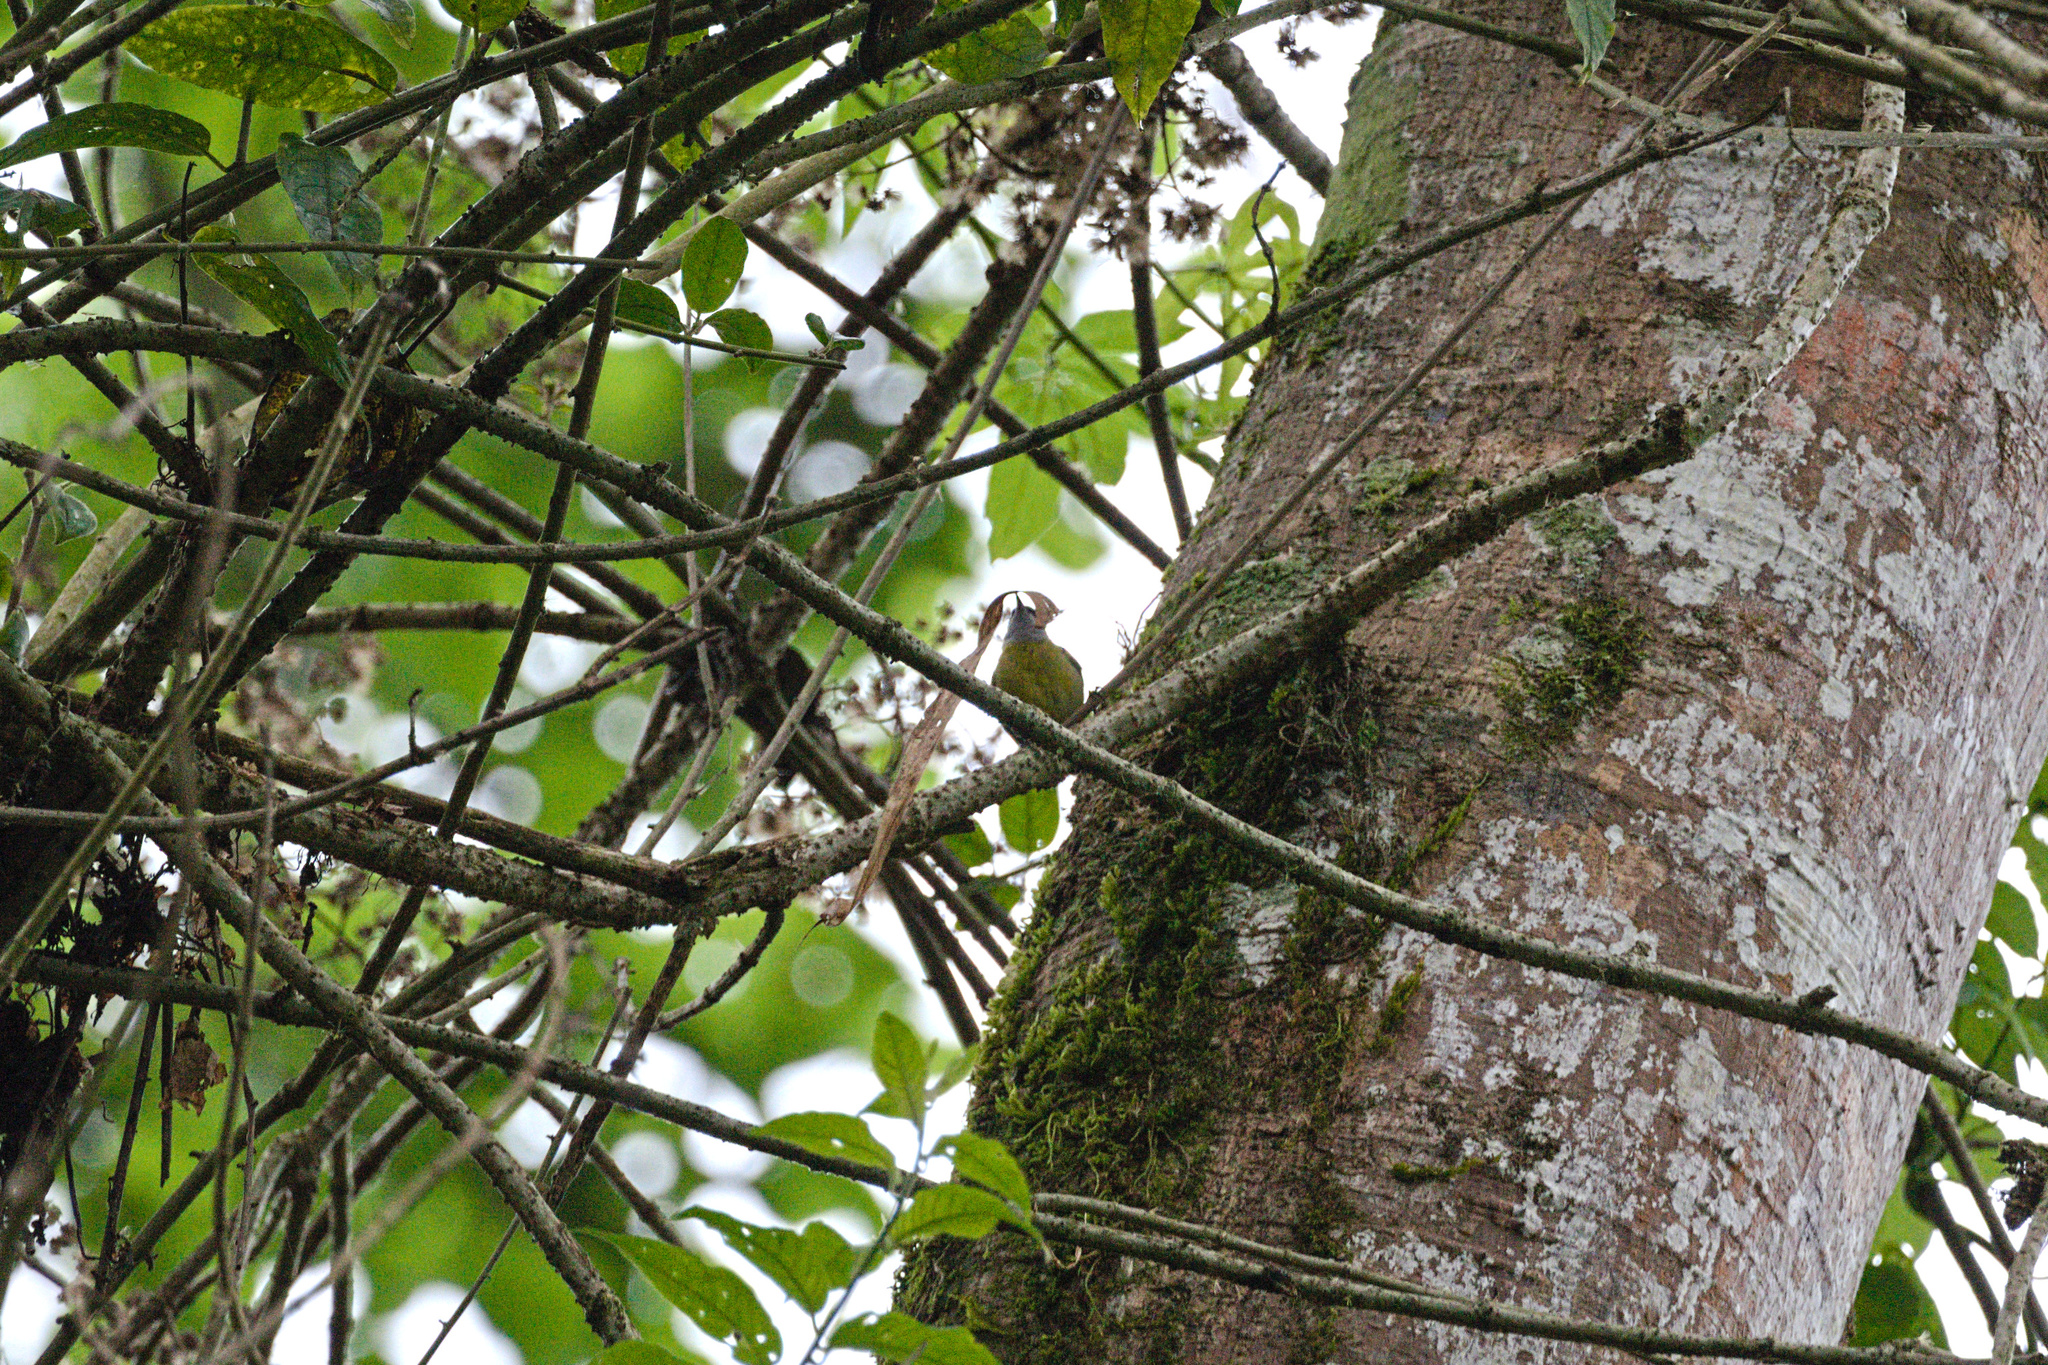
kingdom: Animalia
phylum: Chordata
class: Aves
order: Passeriformes
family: Thraupidae
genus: Coereba
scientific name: Coereba flaveola
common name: Bananaquit
